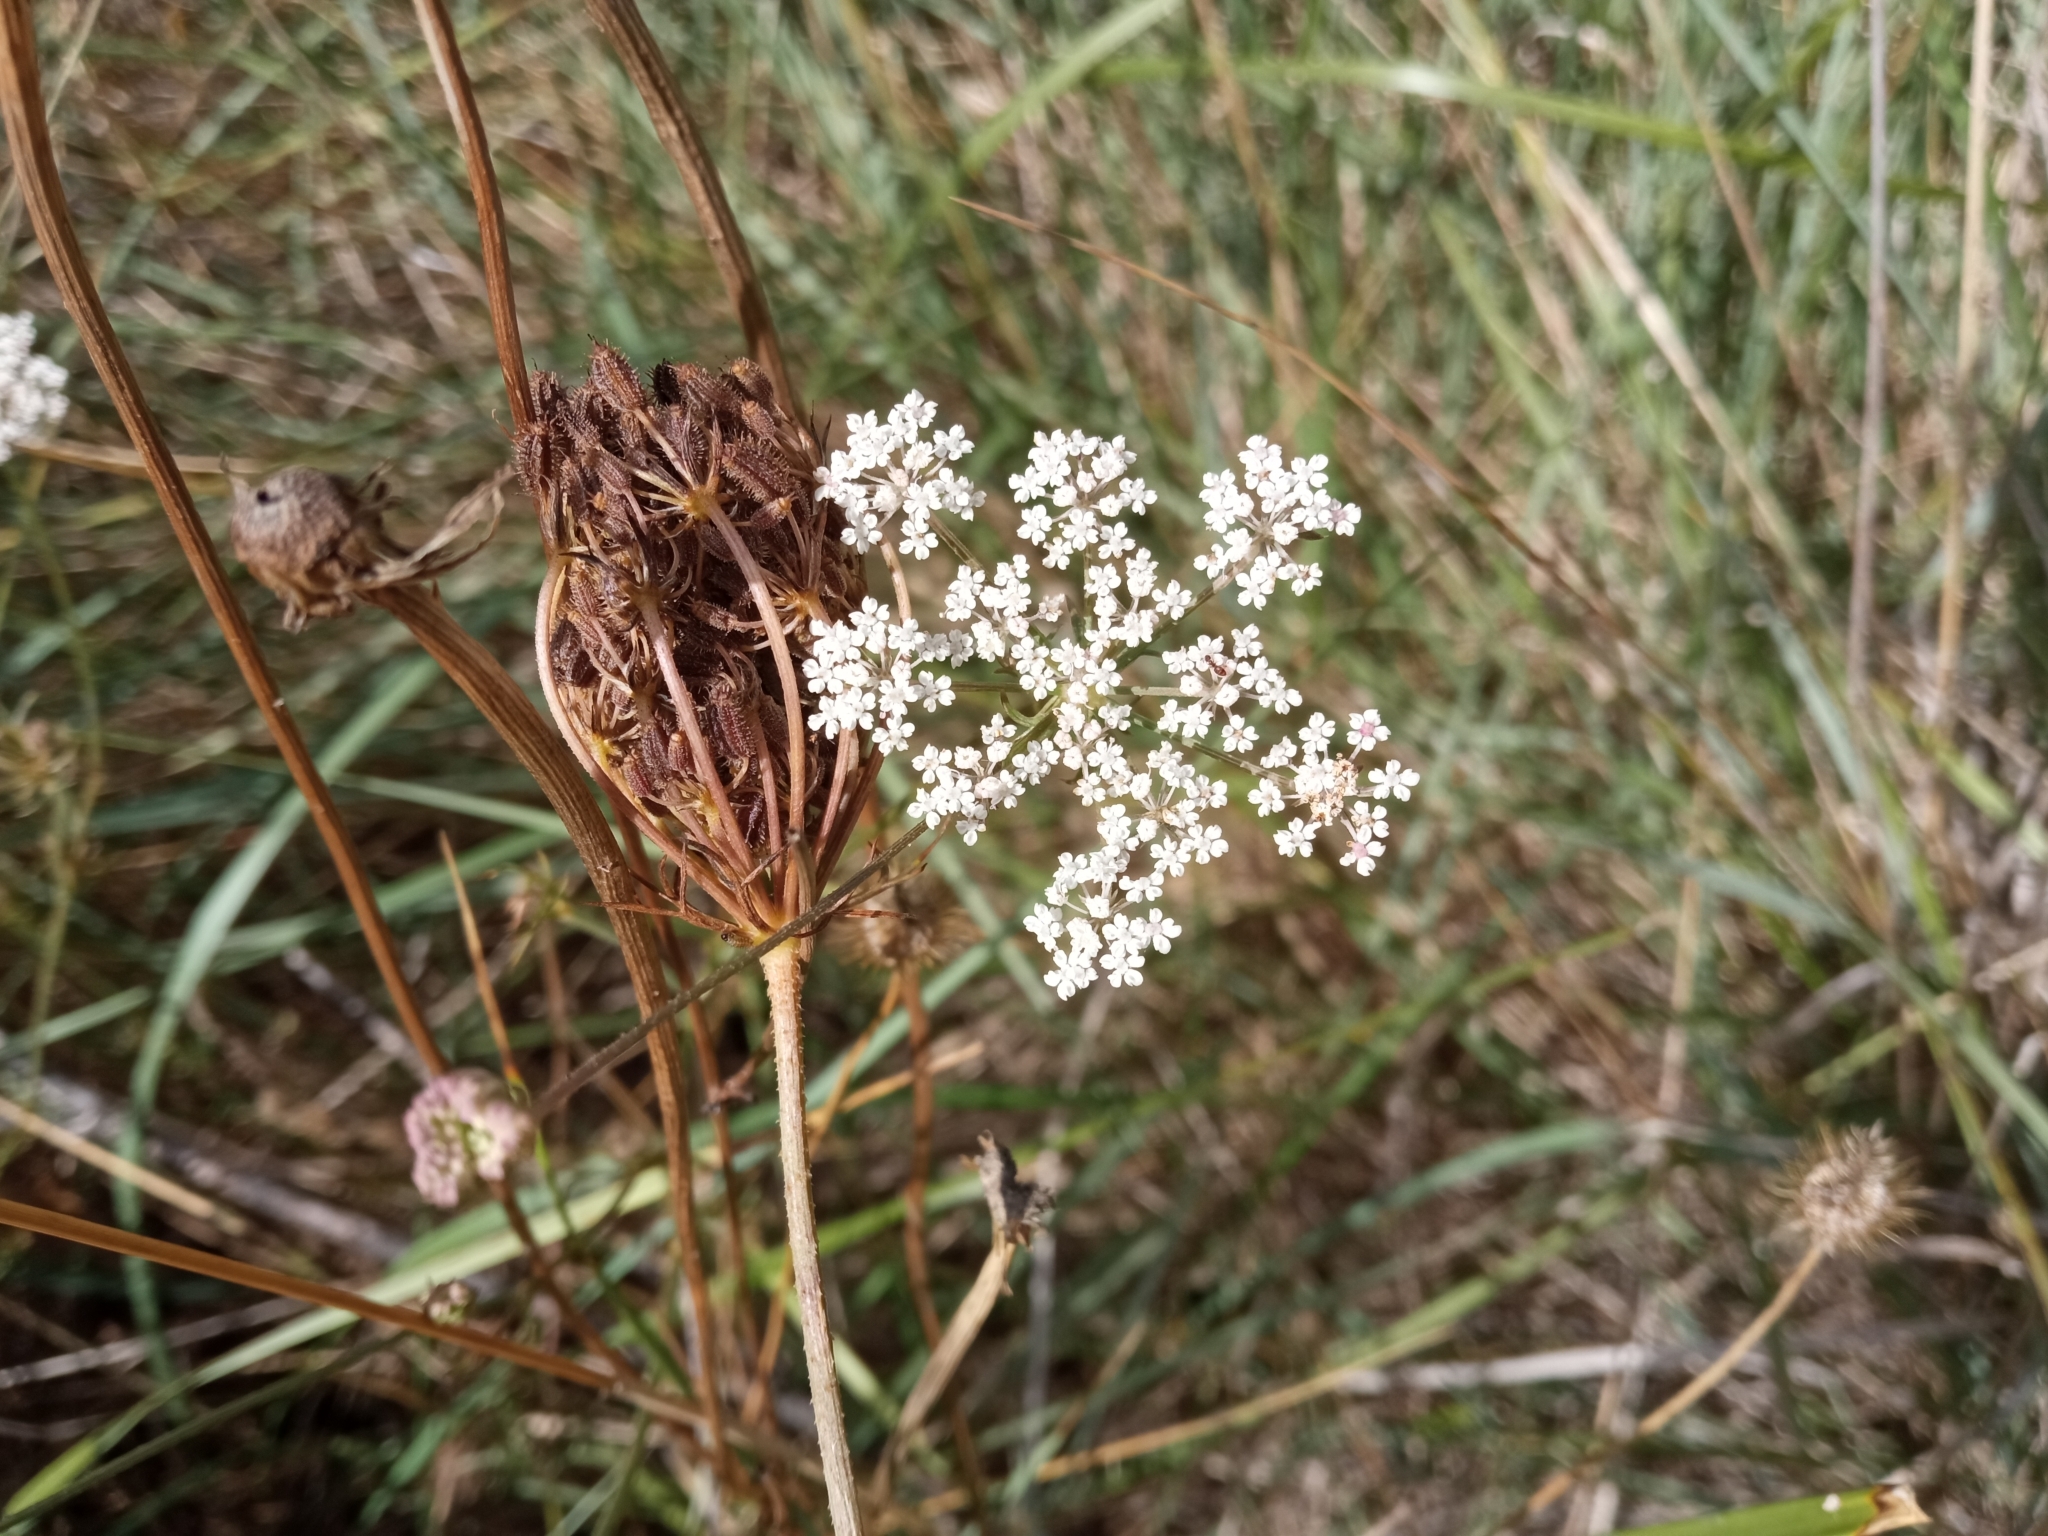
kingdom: Plantae
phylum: Tracheophyta
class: Magnoliopsida
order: Apiales
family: Apiaceae
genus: Daucus
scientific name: Daucus carota
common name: Wild carrot
